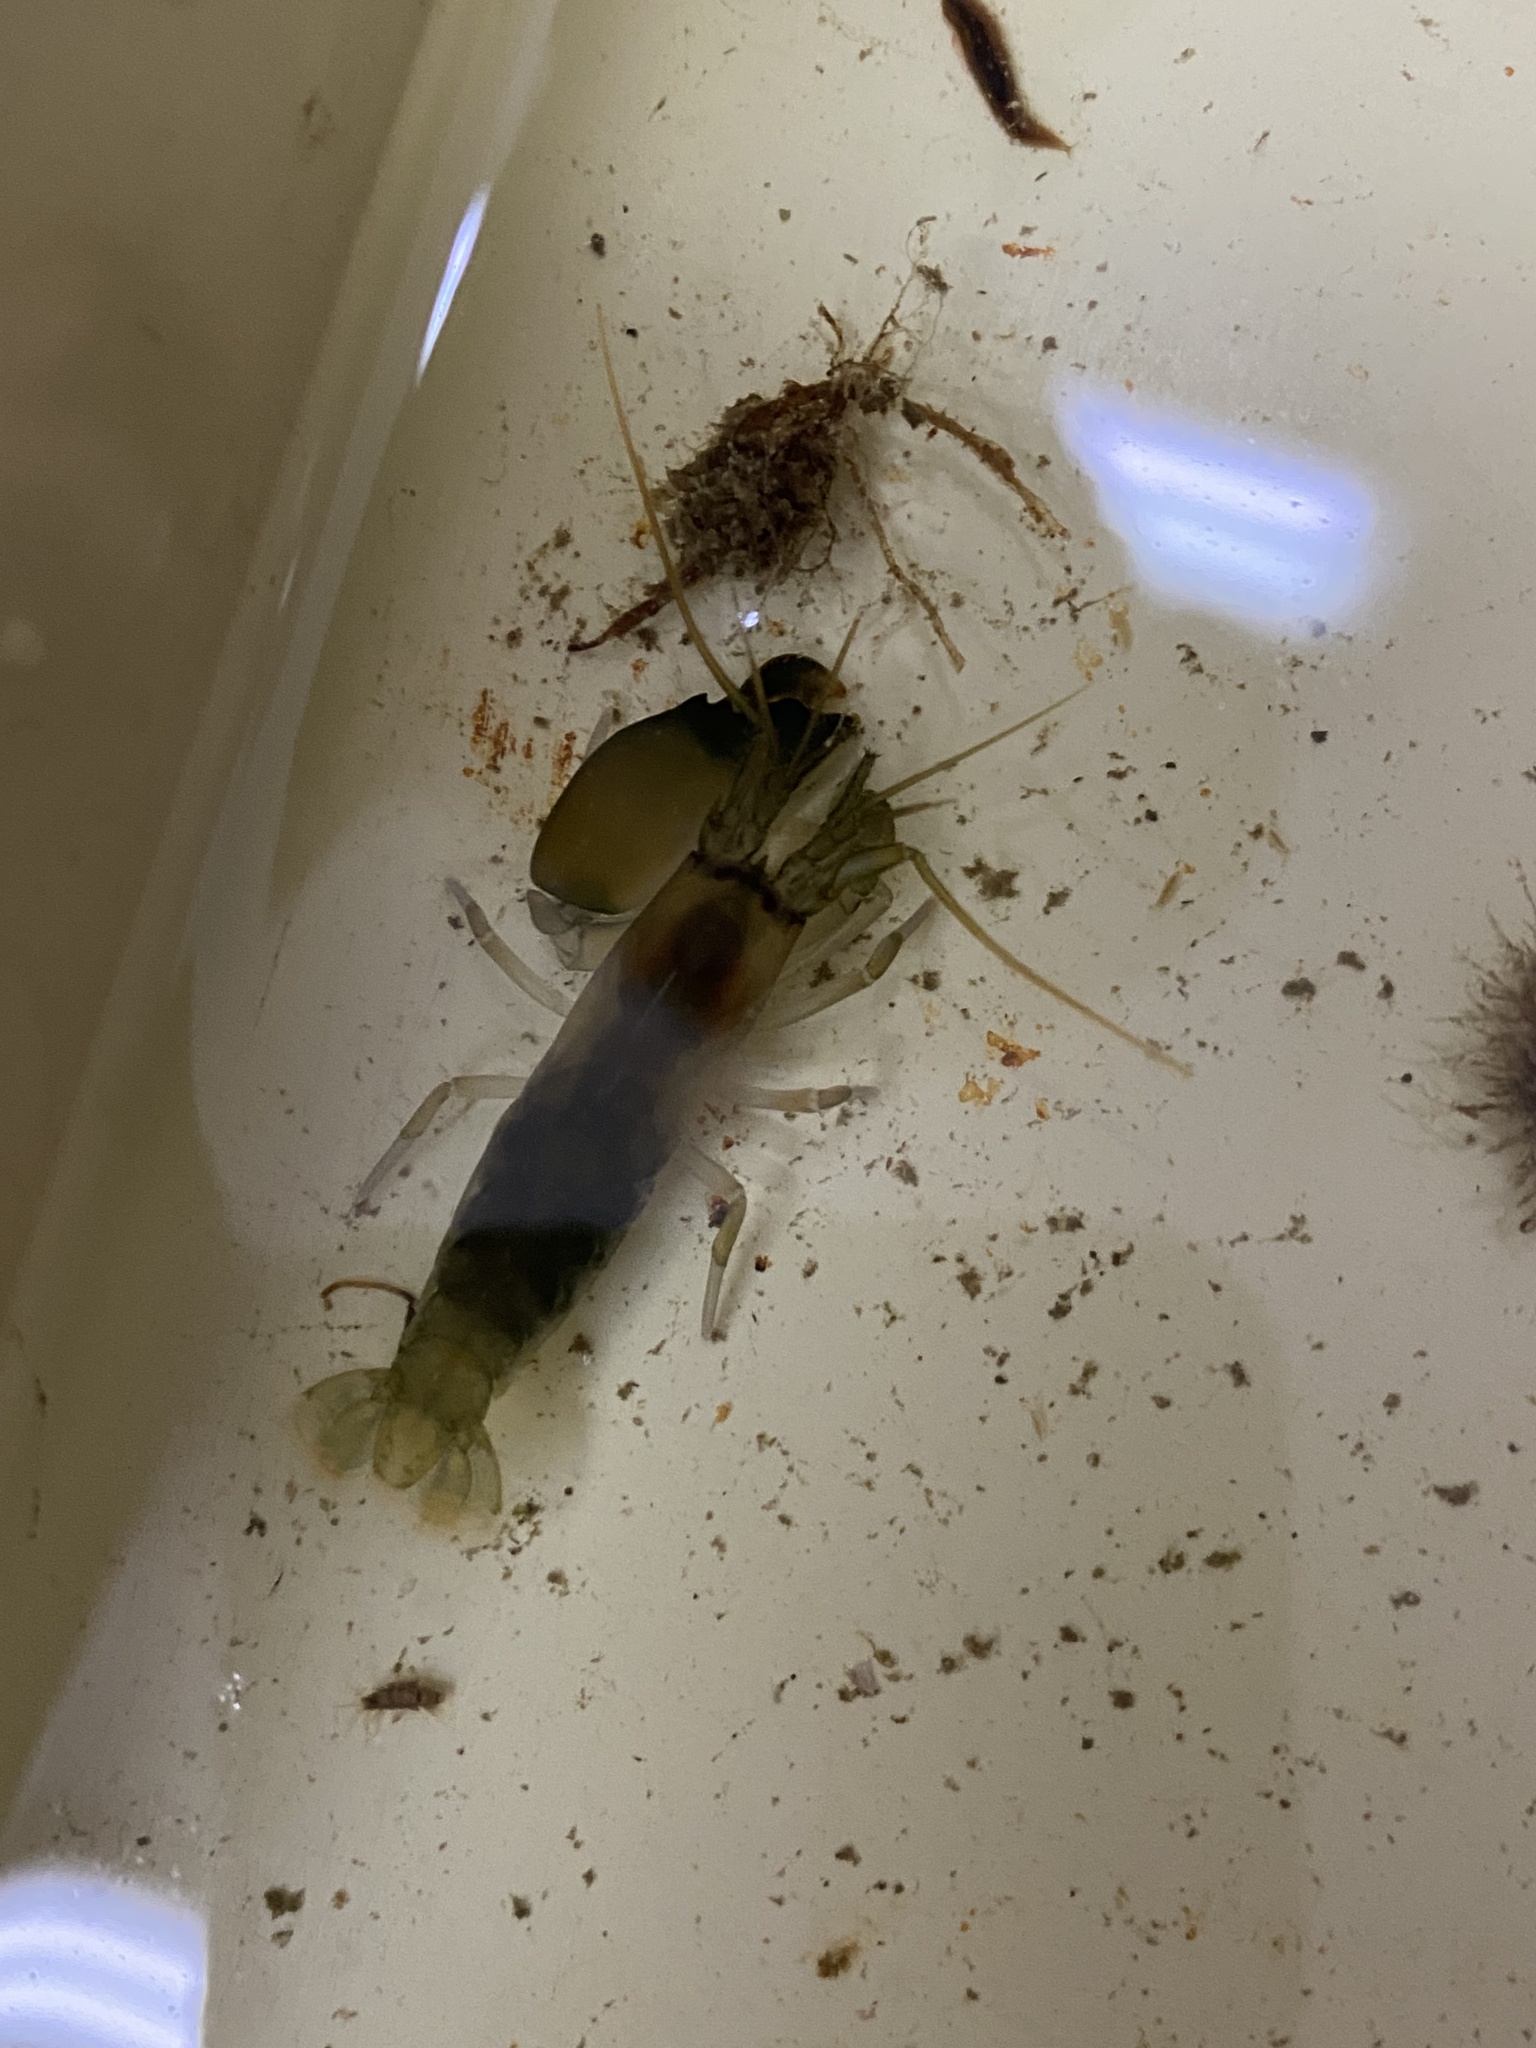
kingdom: Animalia
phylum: Arthropoda
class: Malacostraca
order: Decapoda
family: Alpheidae
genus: Synalpheus
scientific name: Synalpheus spinifrons
